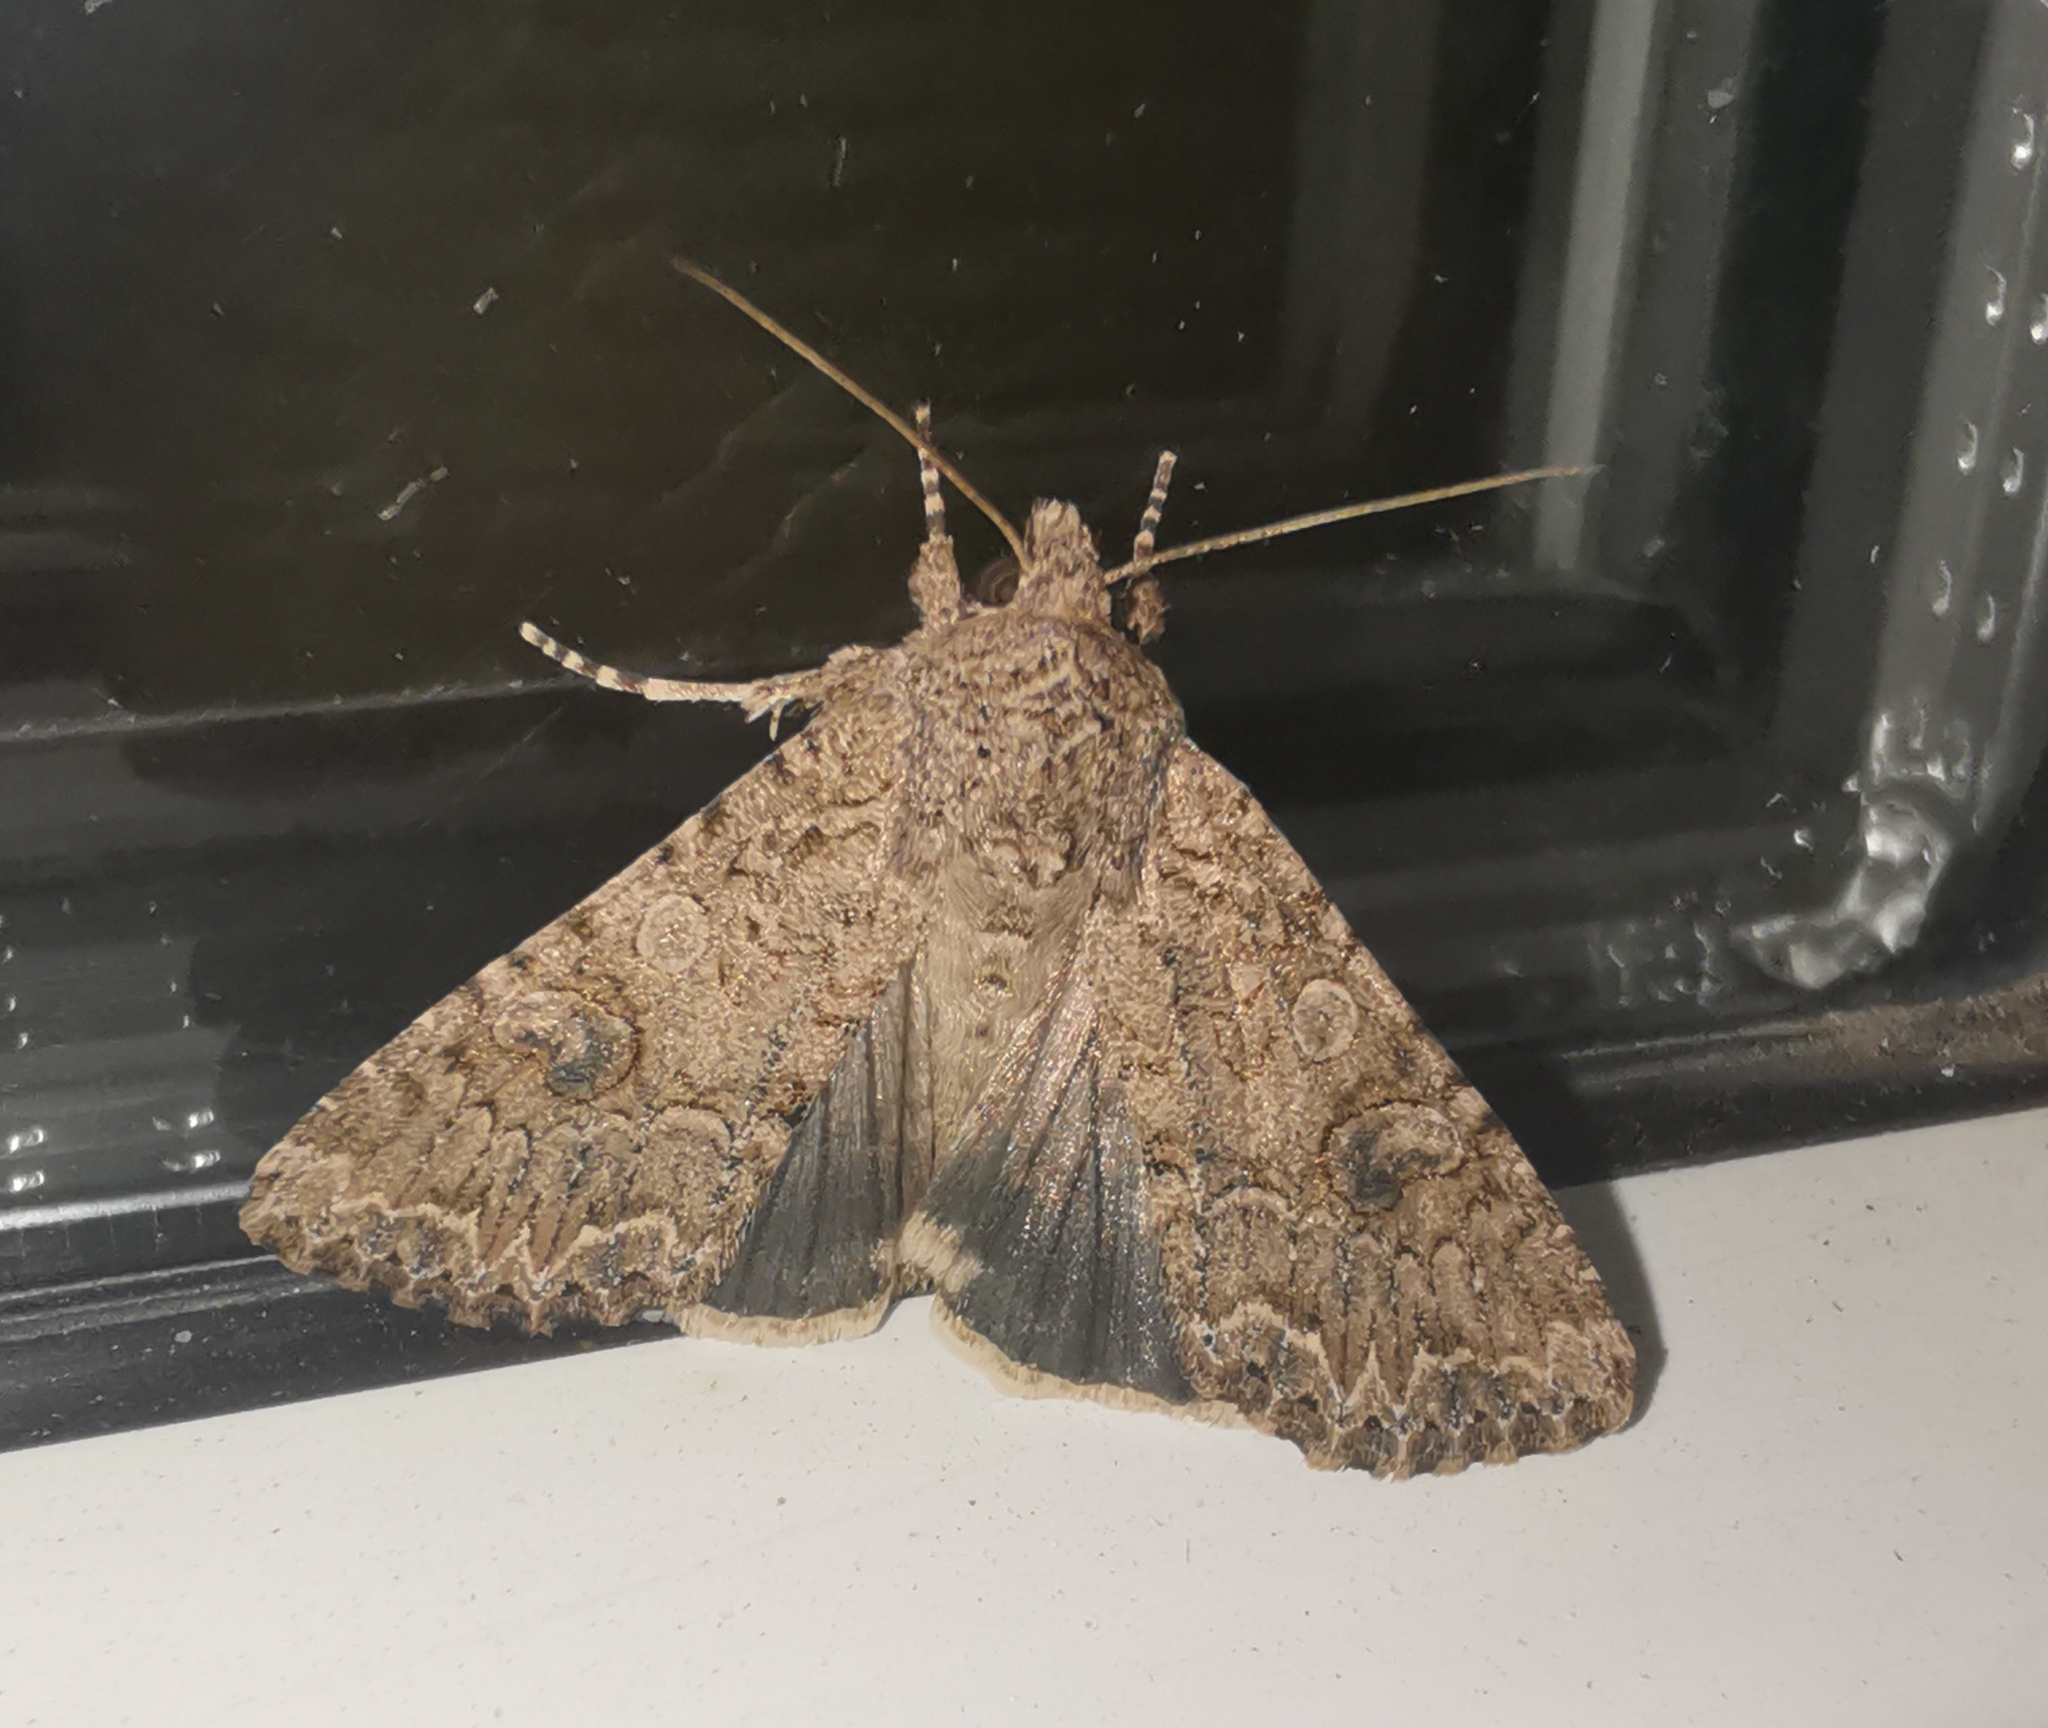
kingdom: Animalia
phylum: Arthropoda
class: Insecta
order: Lepidoptera
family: Noctuidae
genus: Anarta
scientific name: Anarta trifolii
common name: Clover cutworm moth
